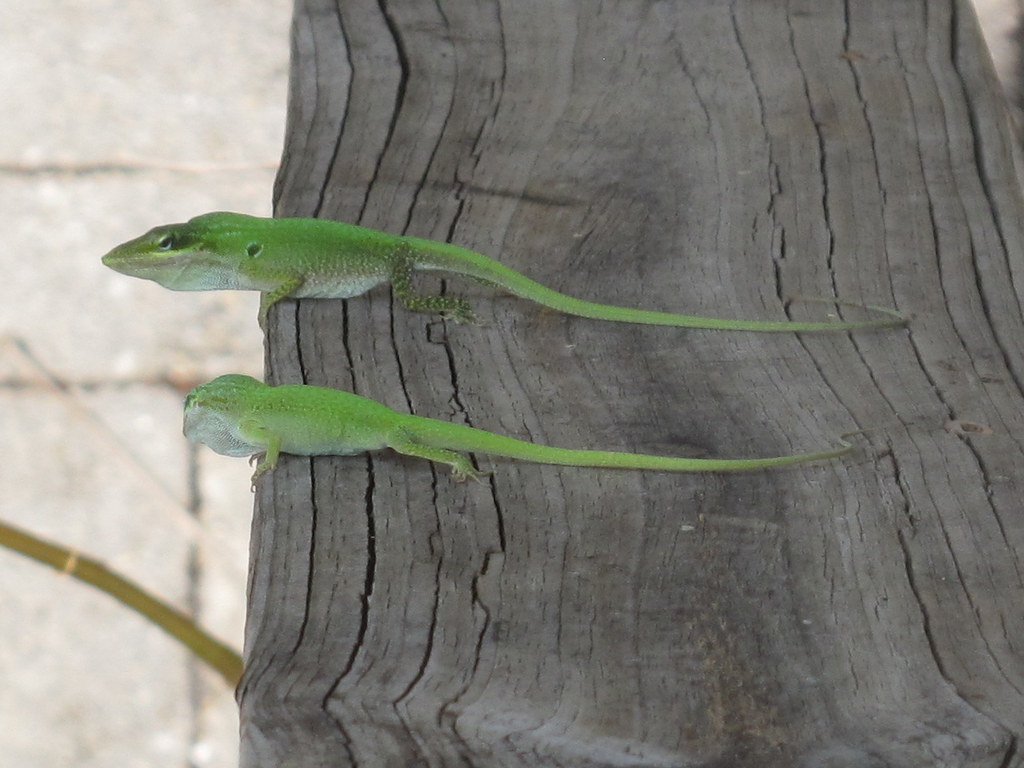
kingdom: Animalia
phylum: Chordata
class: Squamata
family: Dactyloidae
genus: Anolis
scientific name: Anolis carolinensis
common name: Green anole
